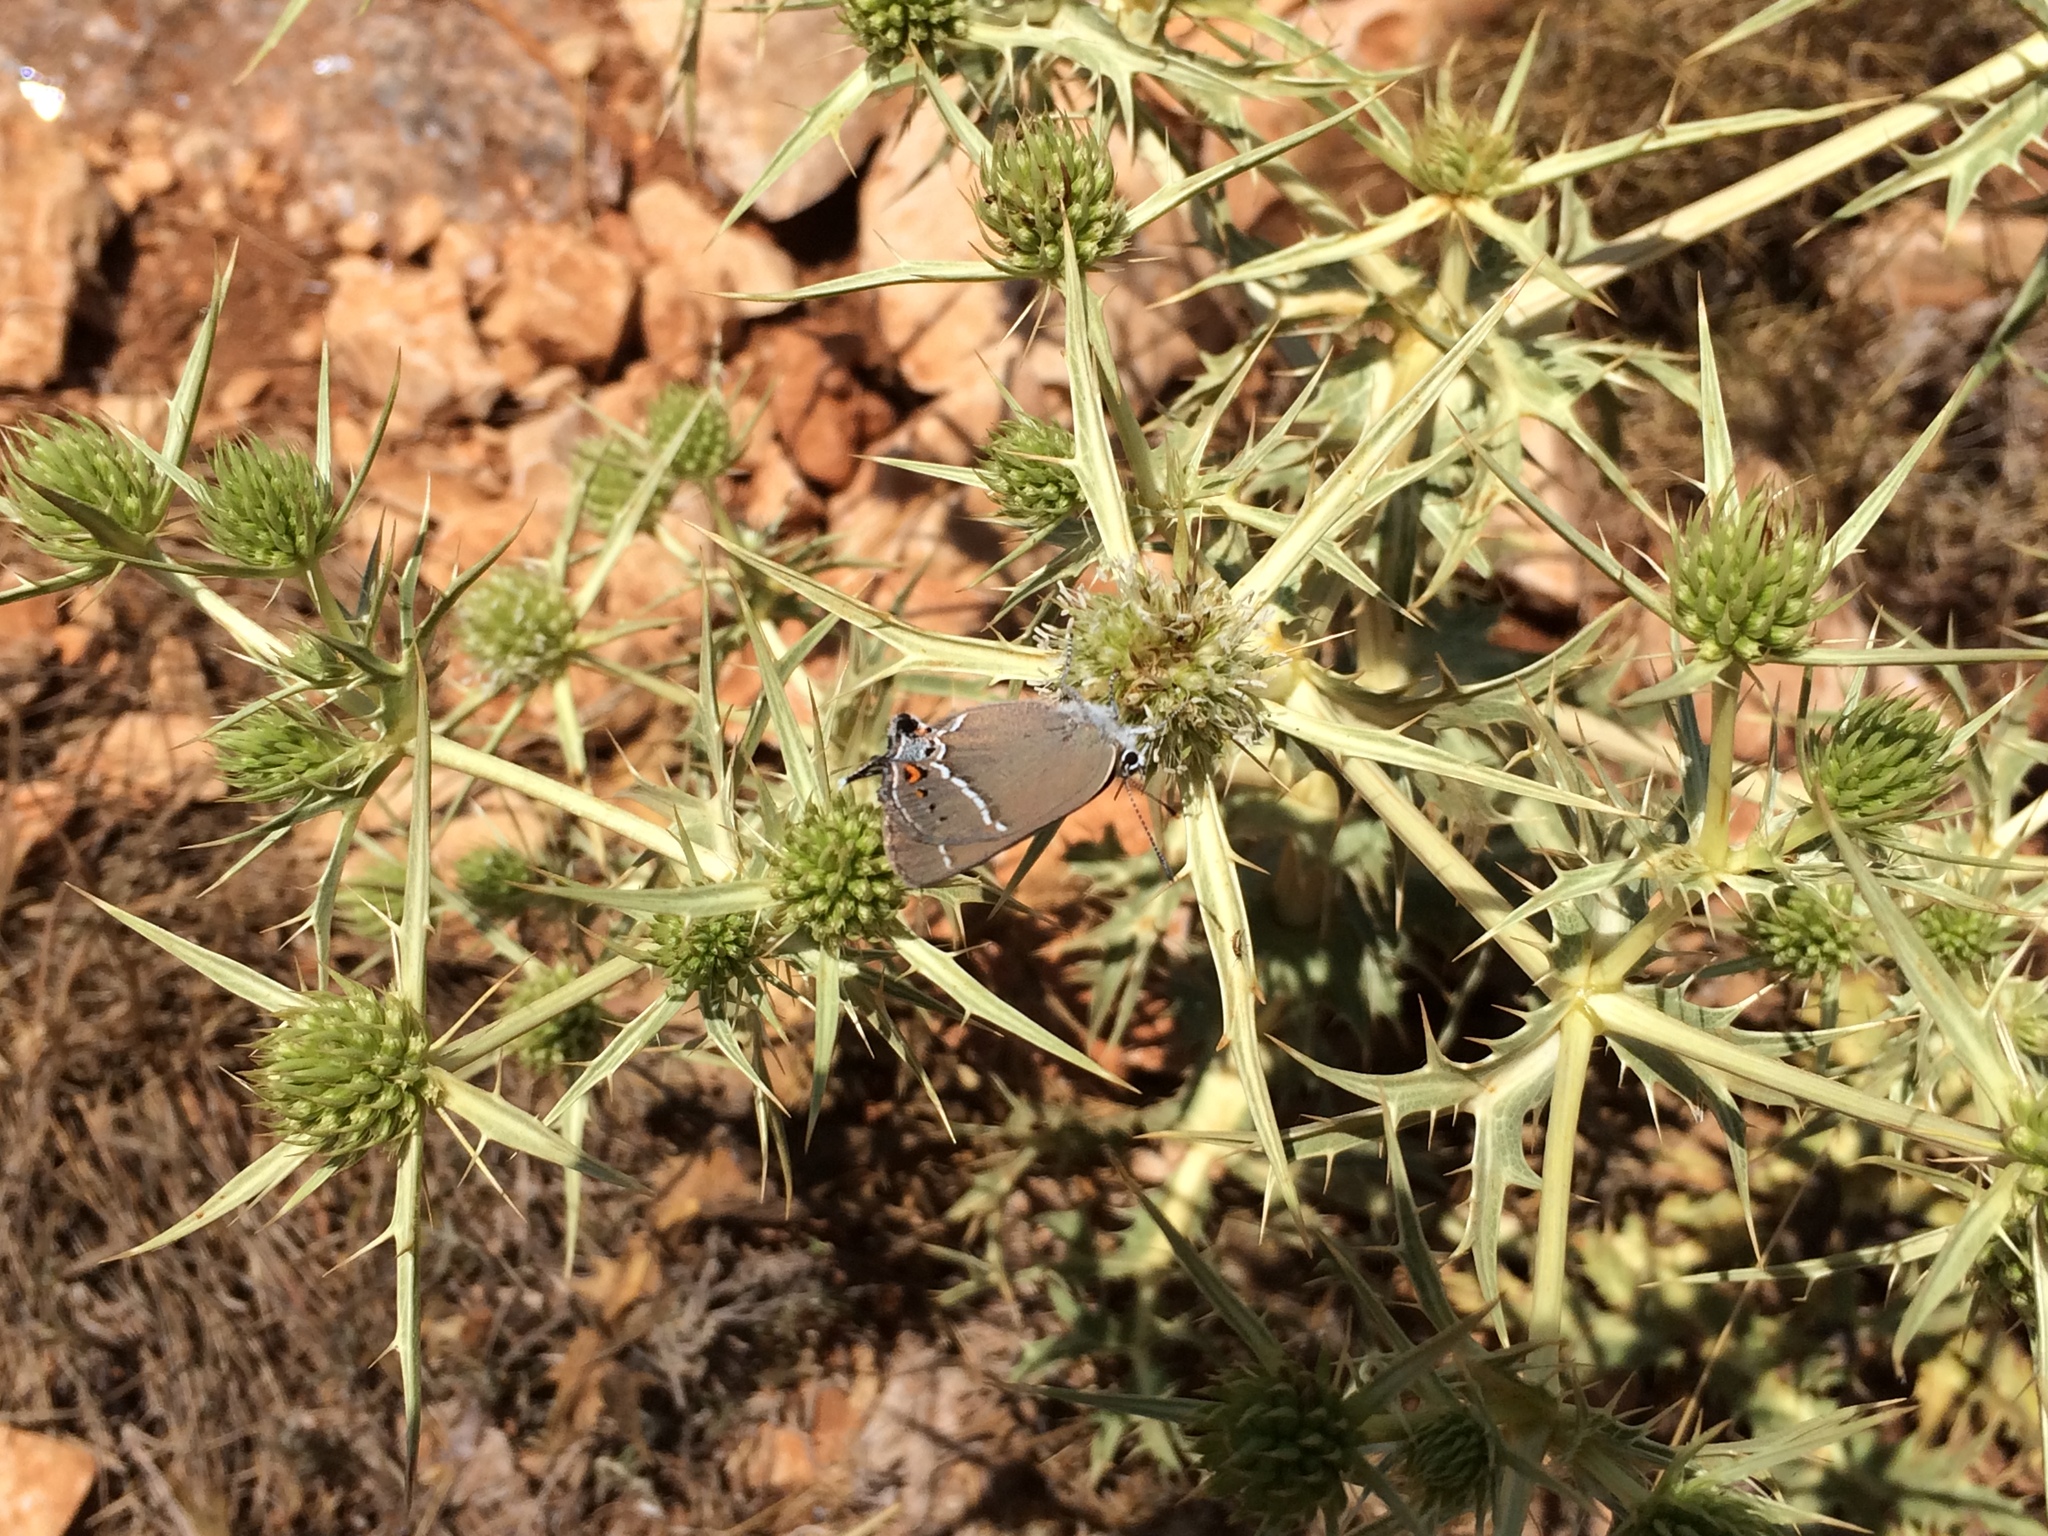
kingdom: Plantae
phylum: Tracheophyta
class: Magnoliopsida
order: Apiales
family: Apiaceae
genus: Eryngium
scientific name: Eryngium campestre
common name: Field eryngo
